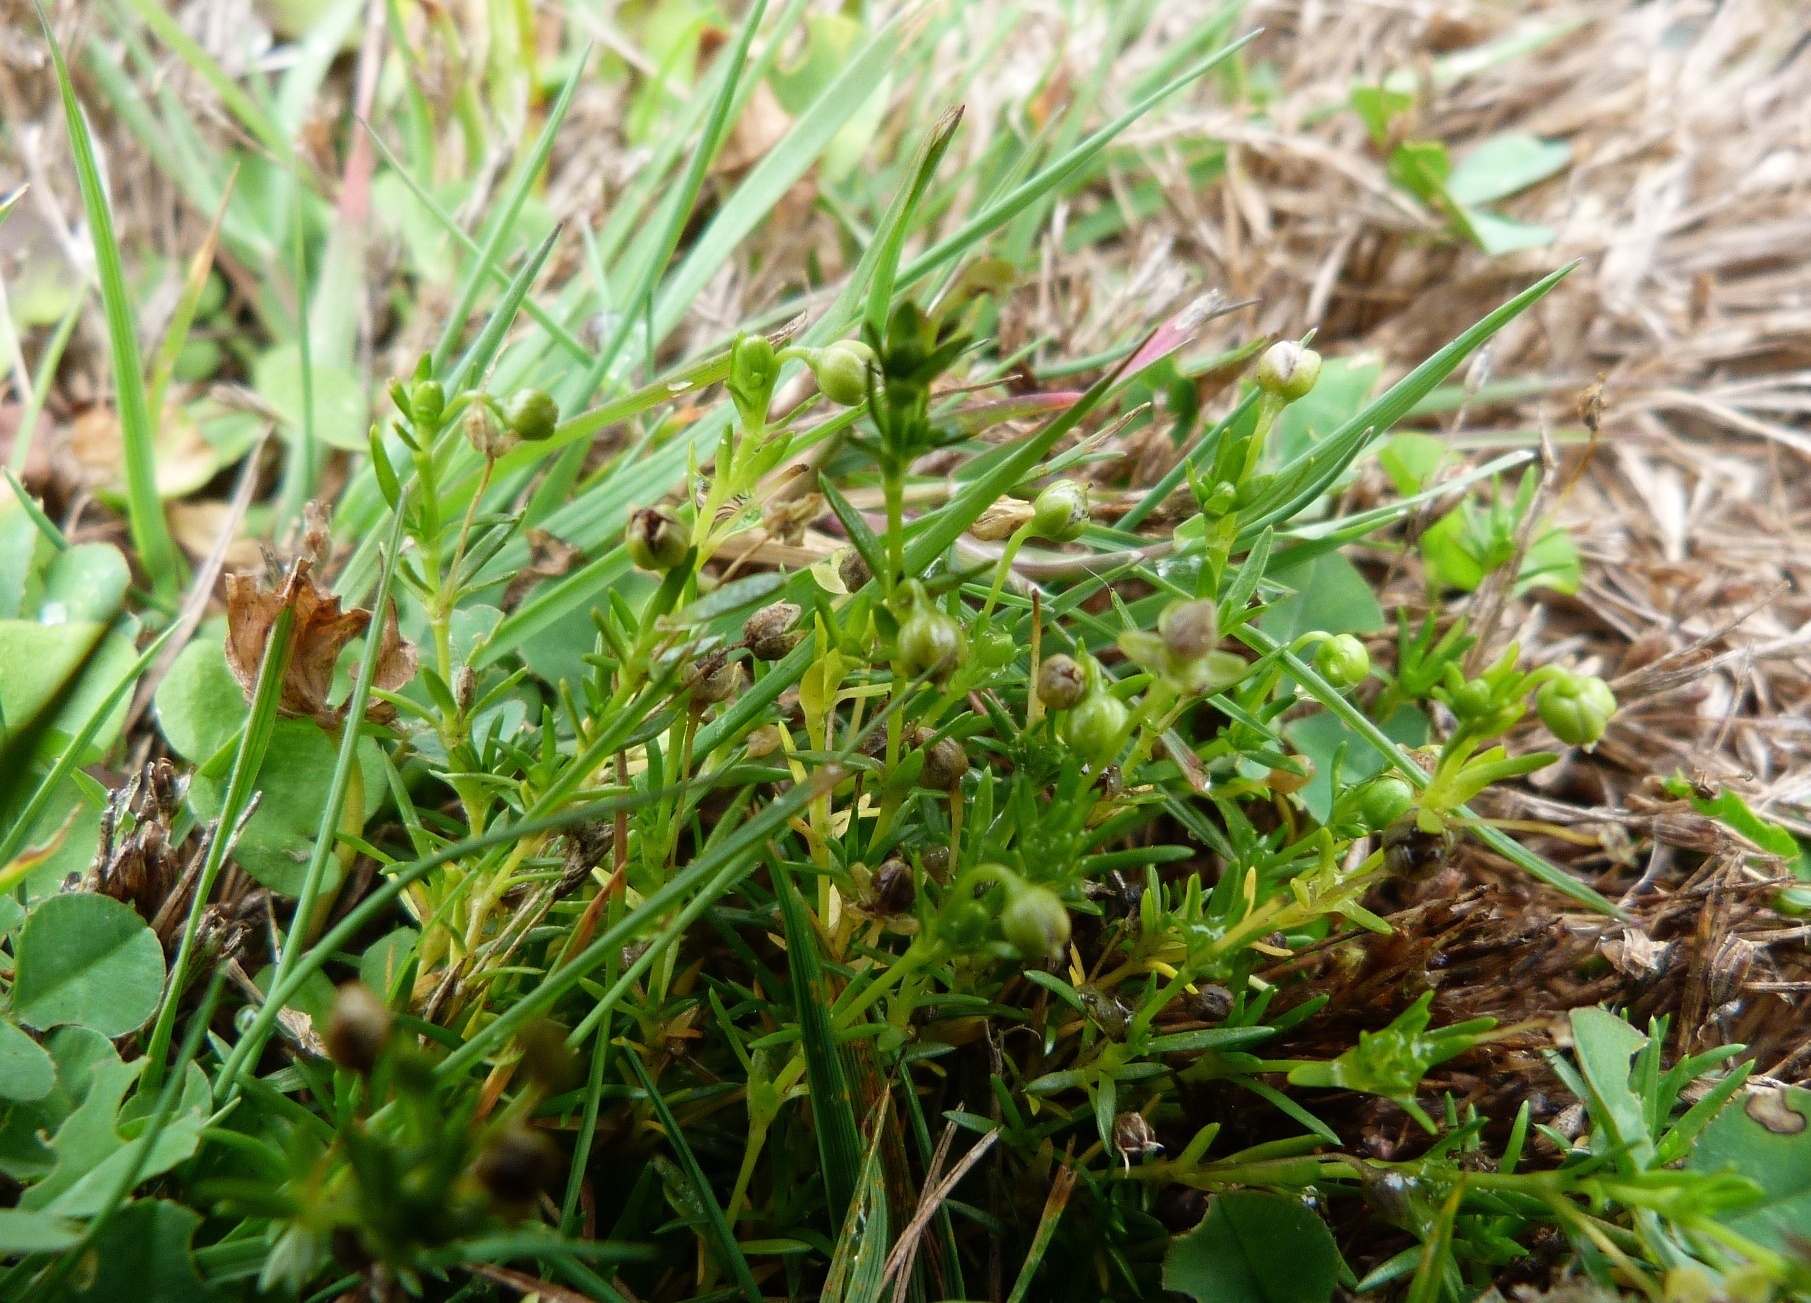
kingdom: Plantae
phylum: Tracheophyta
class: Magnoliopsida
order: Caryophyllales
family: Caryophyllaceae
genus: Sagina
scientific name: Sagina procumbens
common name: Procumbent pearlwort
